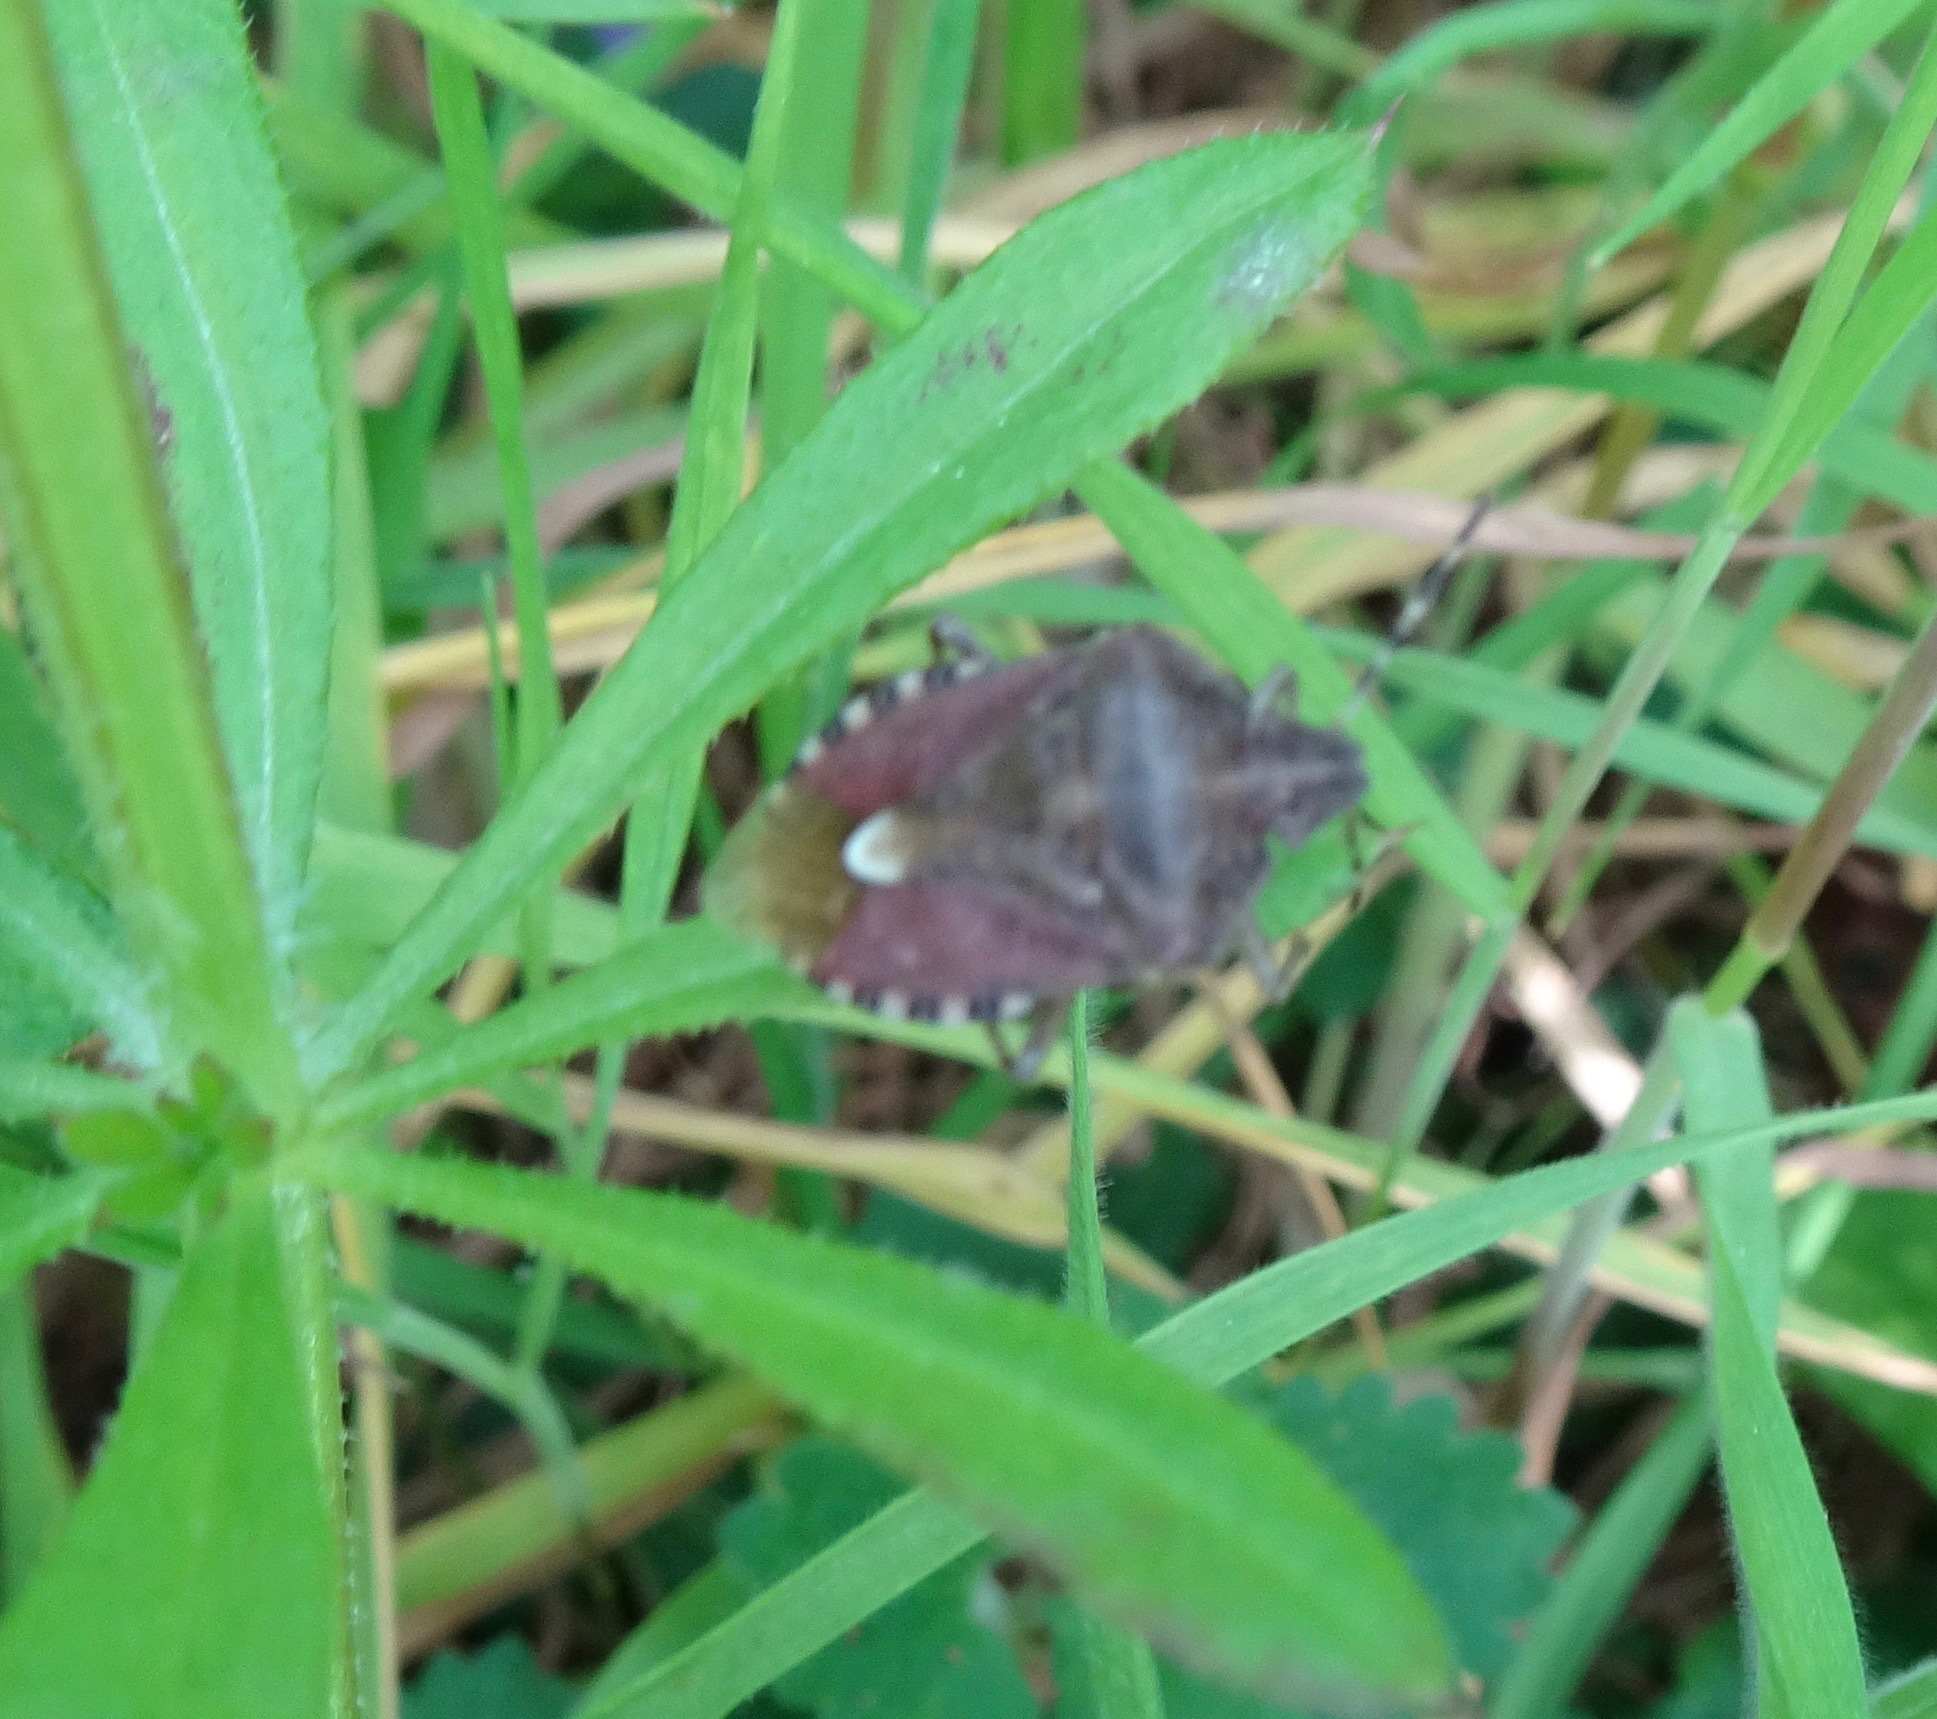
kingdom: Animalia
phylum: Arthropoda
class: Insecta
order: Hemiptera
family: Pentatomidae
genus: Dolycoris
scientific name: Dolycoris baccarum
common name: Sloe bug
